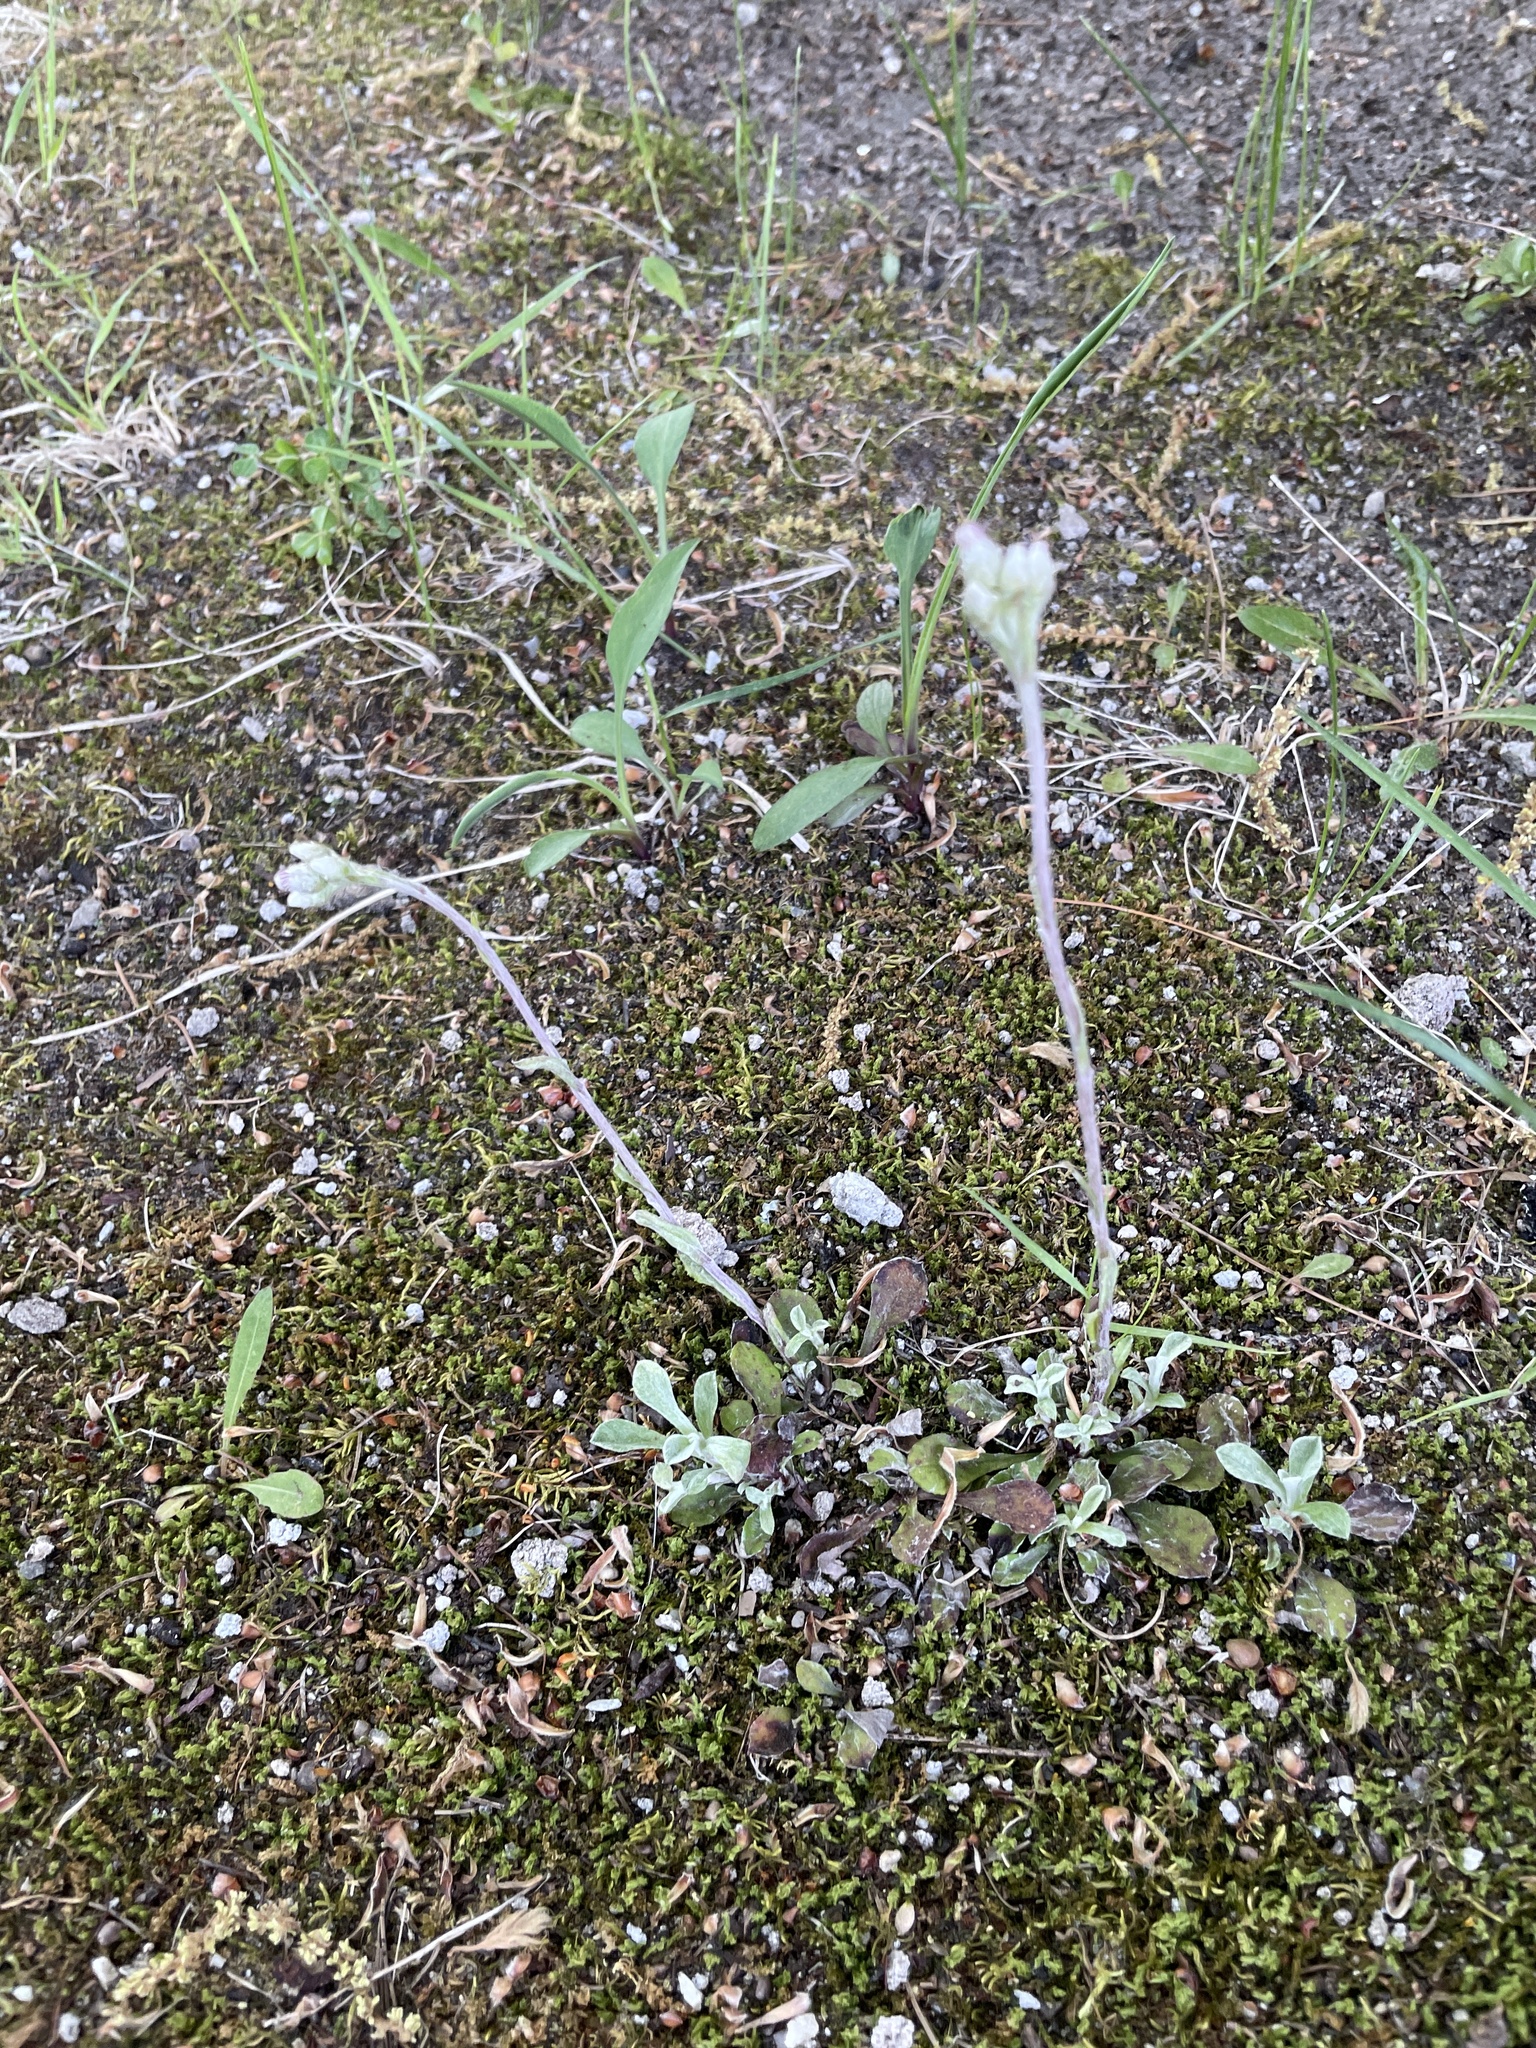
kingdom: Plantae
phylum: Tracheophyta
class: Magnoliopsida
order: Asterales
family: Asteraceae
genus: Antennaria
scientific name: Antennaria howellii
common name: Howell's pussytoes
